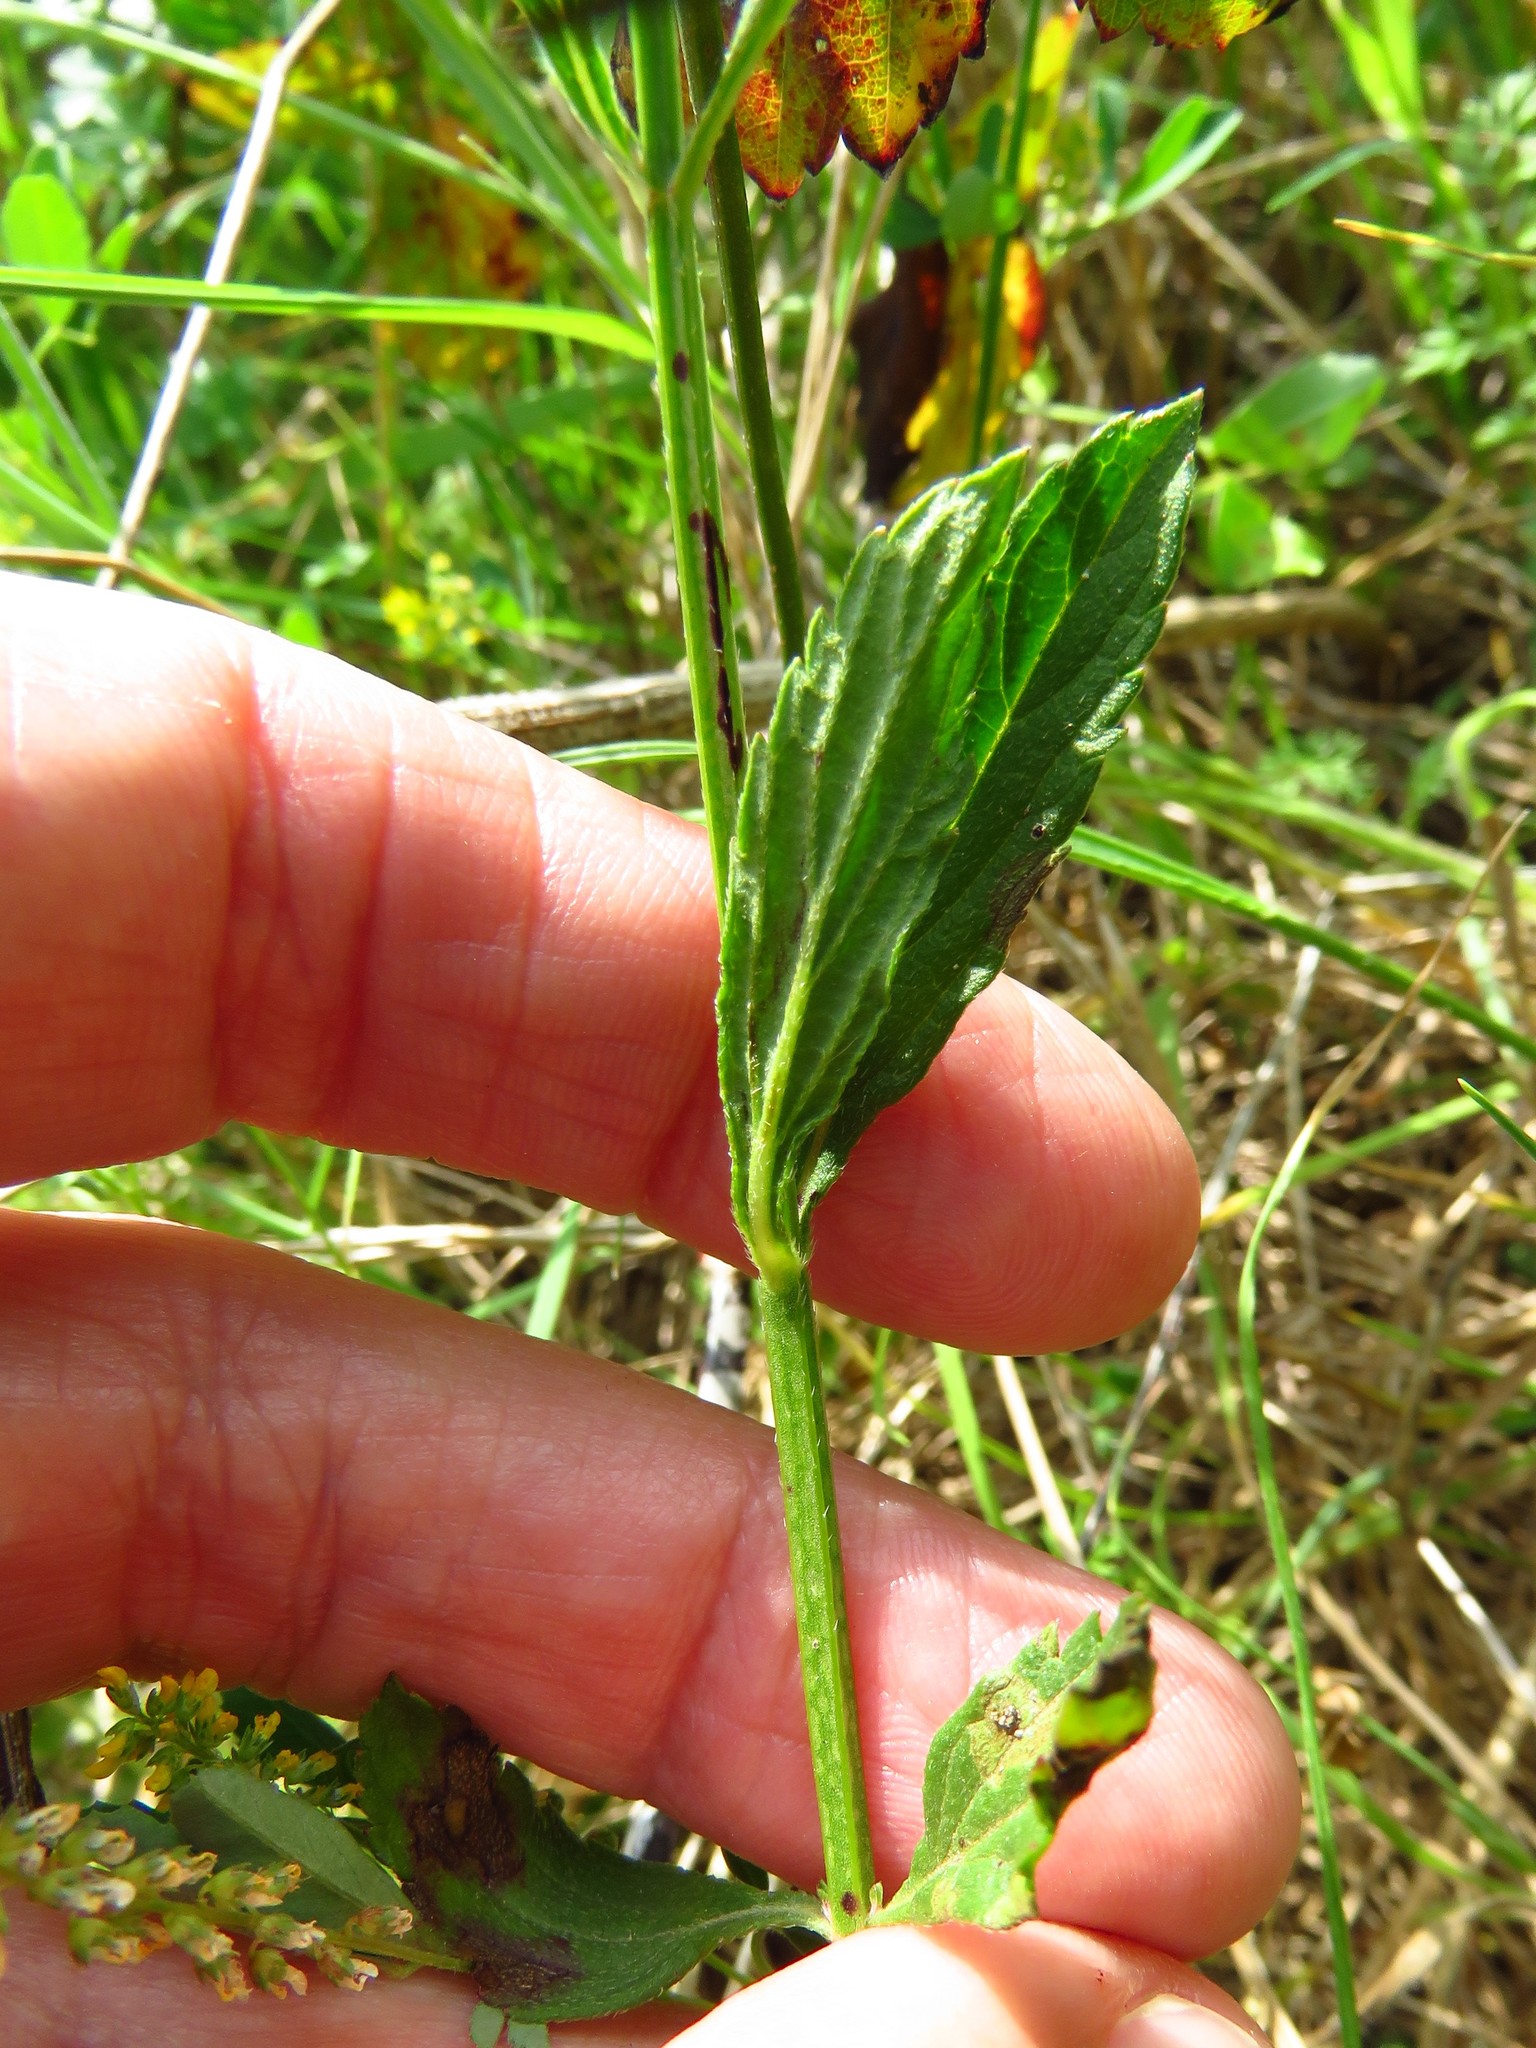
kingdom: Plantae
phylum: Tracheophyta
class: Magnoliopsida
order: Lamiales
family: Verbenaceae
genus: Verbena
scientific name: Verbena brasiliensis
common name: Brazilian vervain
